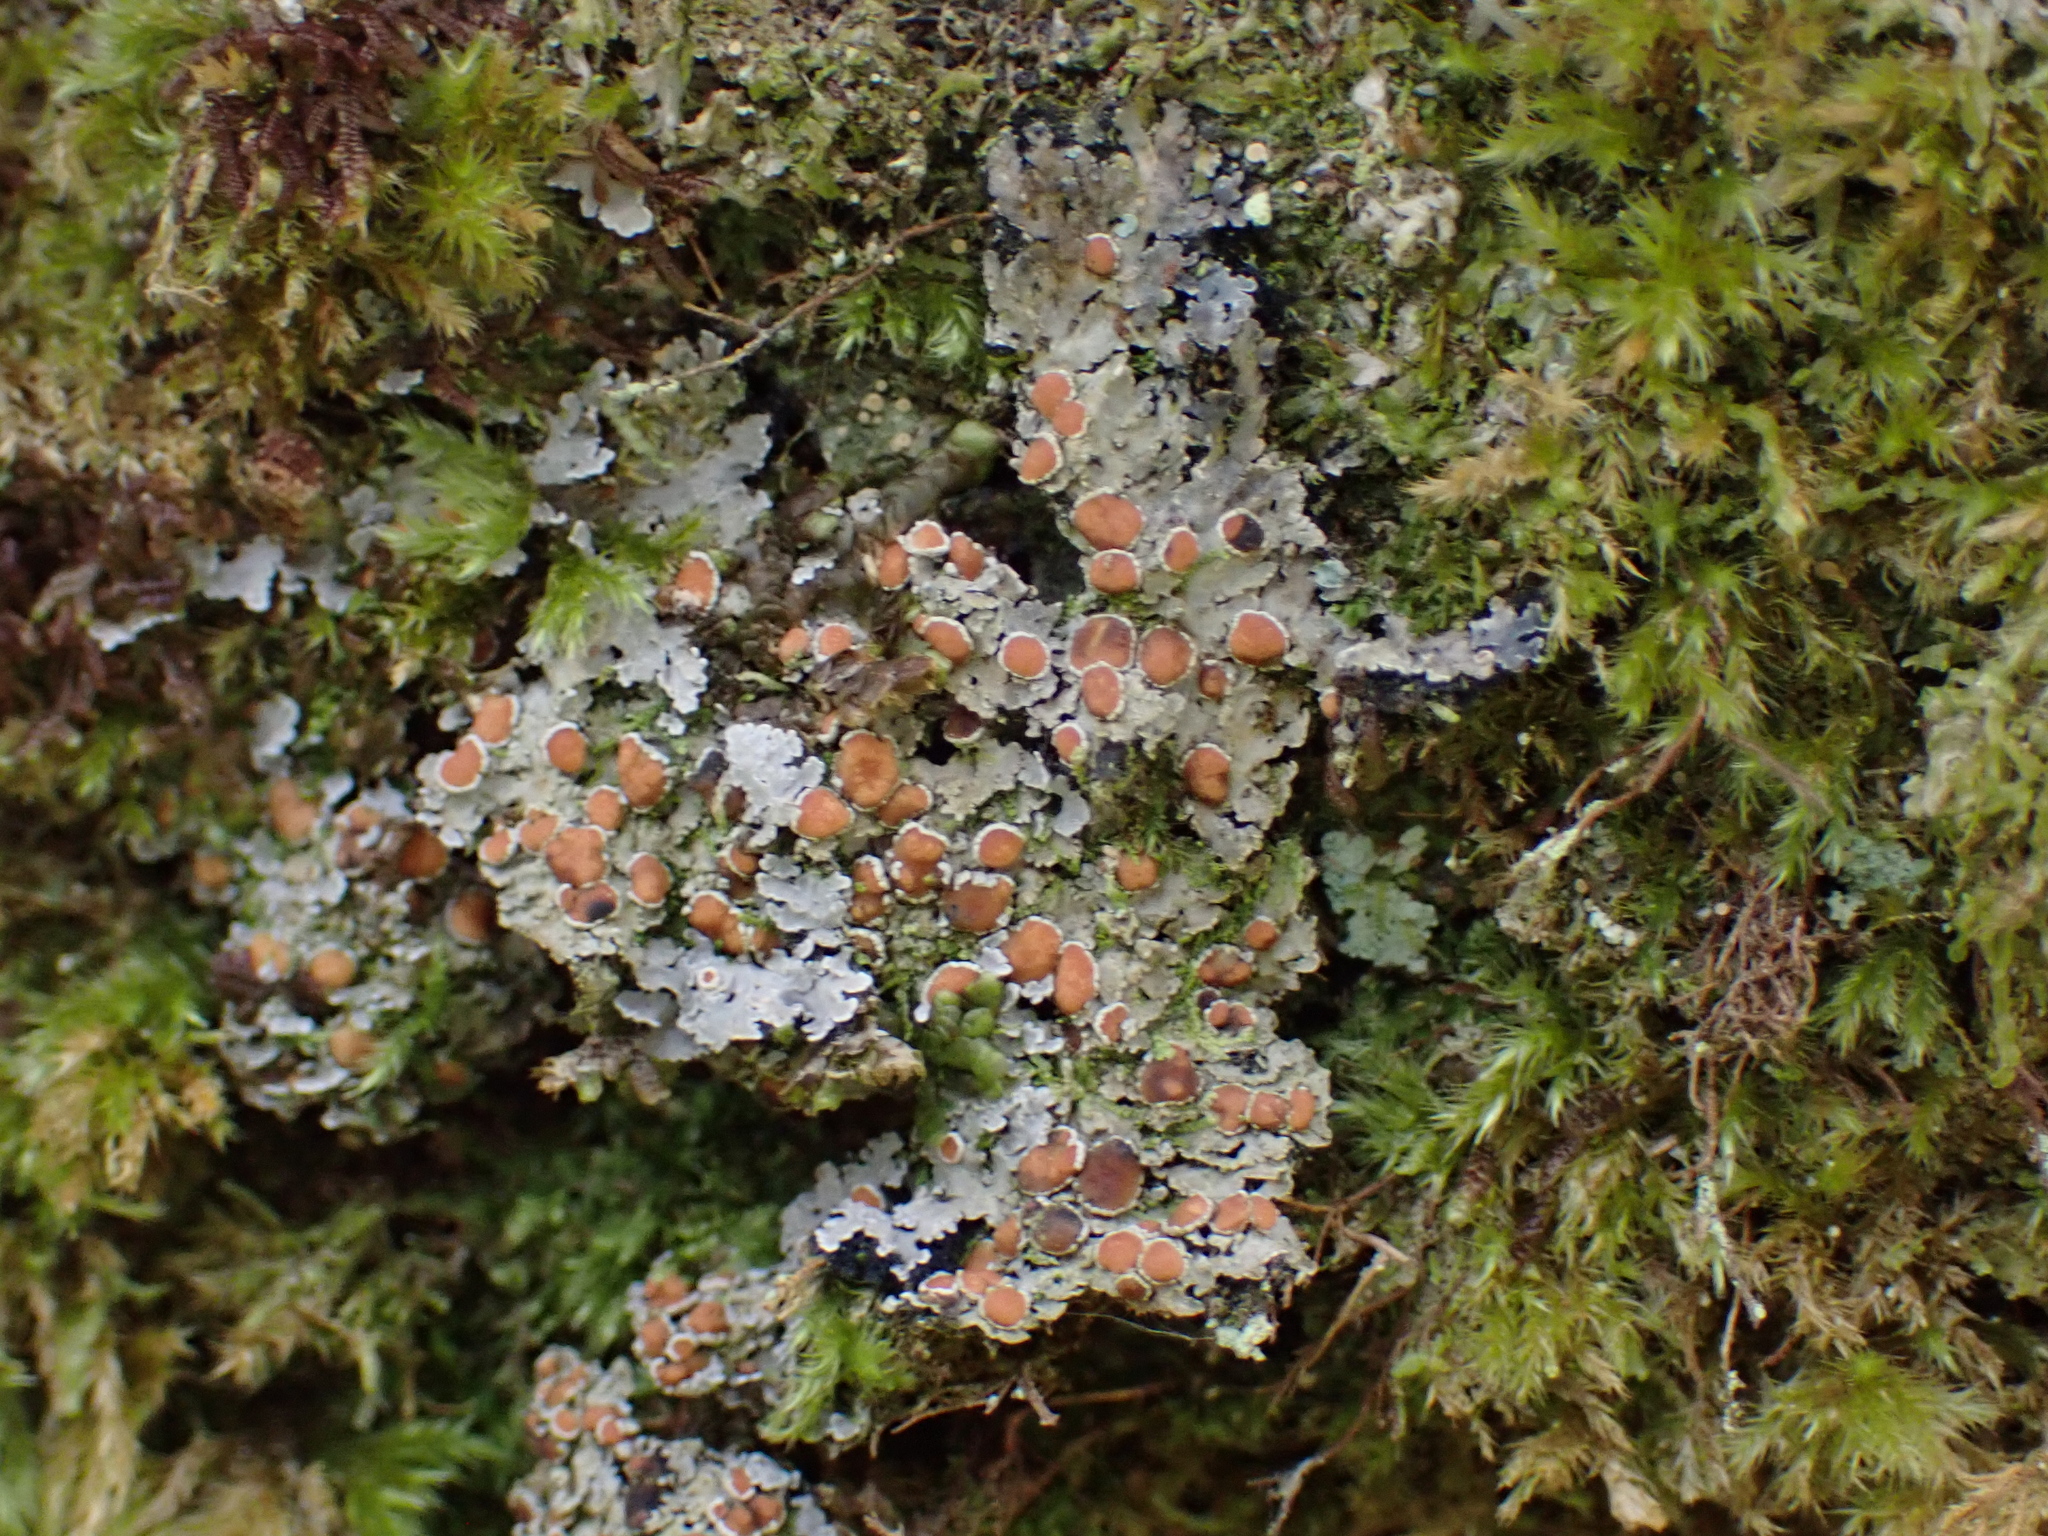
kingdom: Fungi
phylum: Ascomycota
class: Lecanoromycetes
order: Peltigerales
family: Pannariaceae
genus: Pannaria
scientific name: Pannaria rubiginosa
